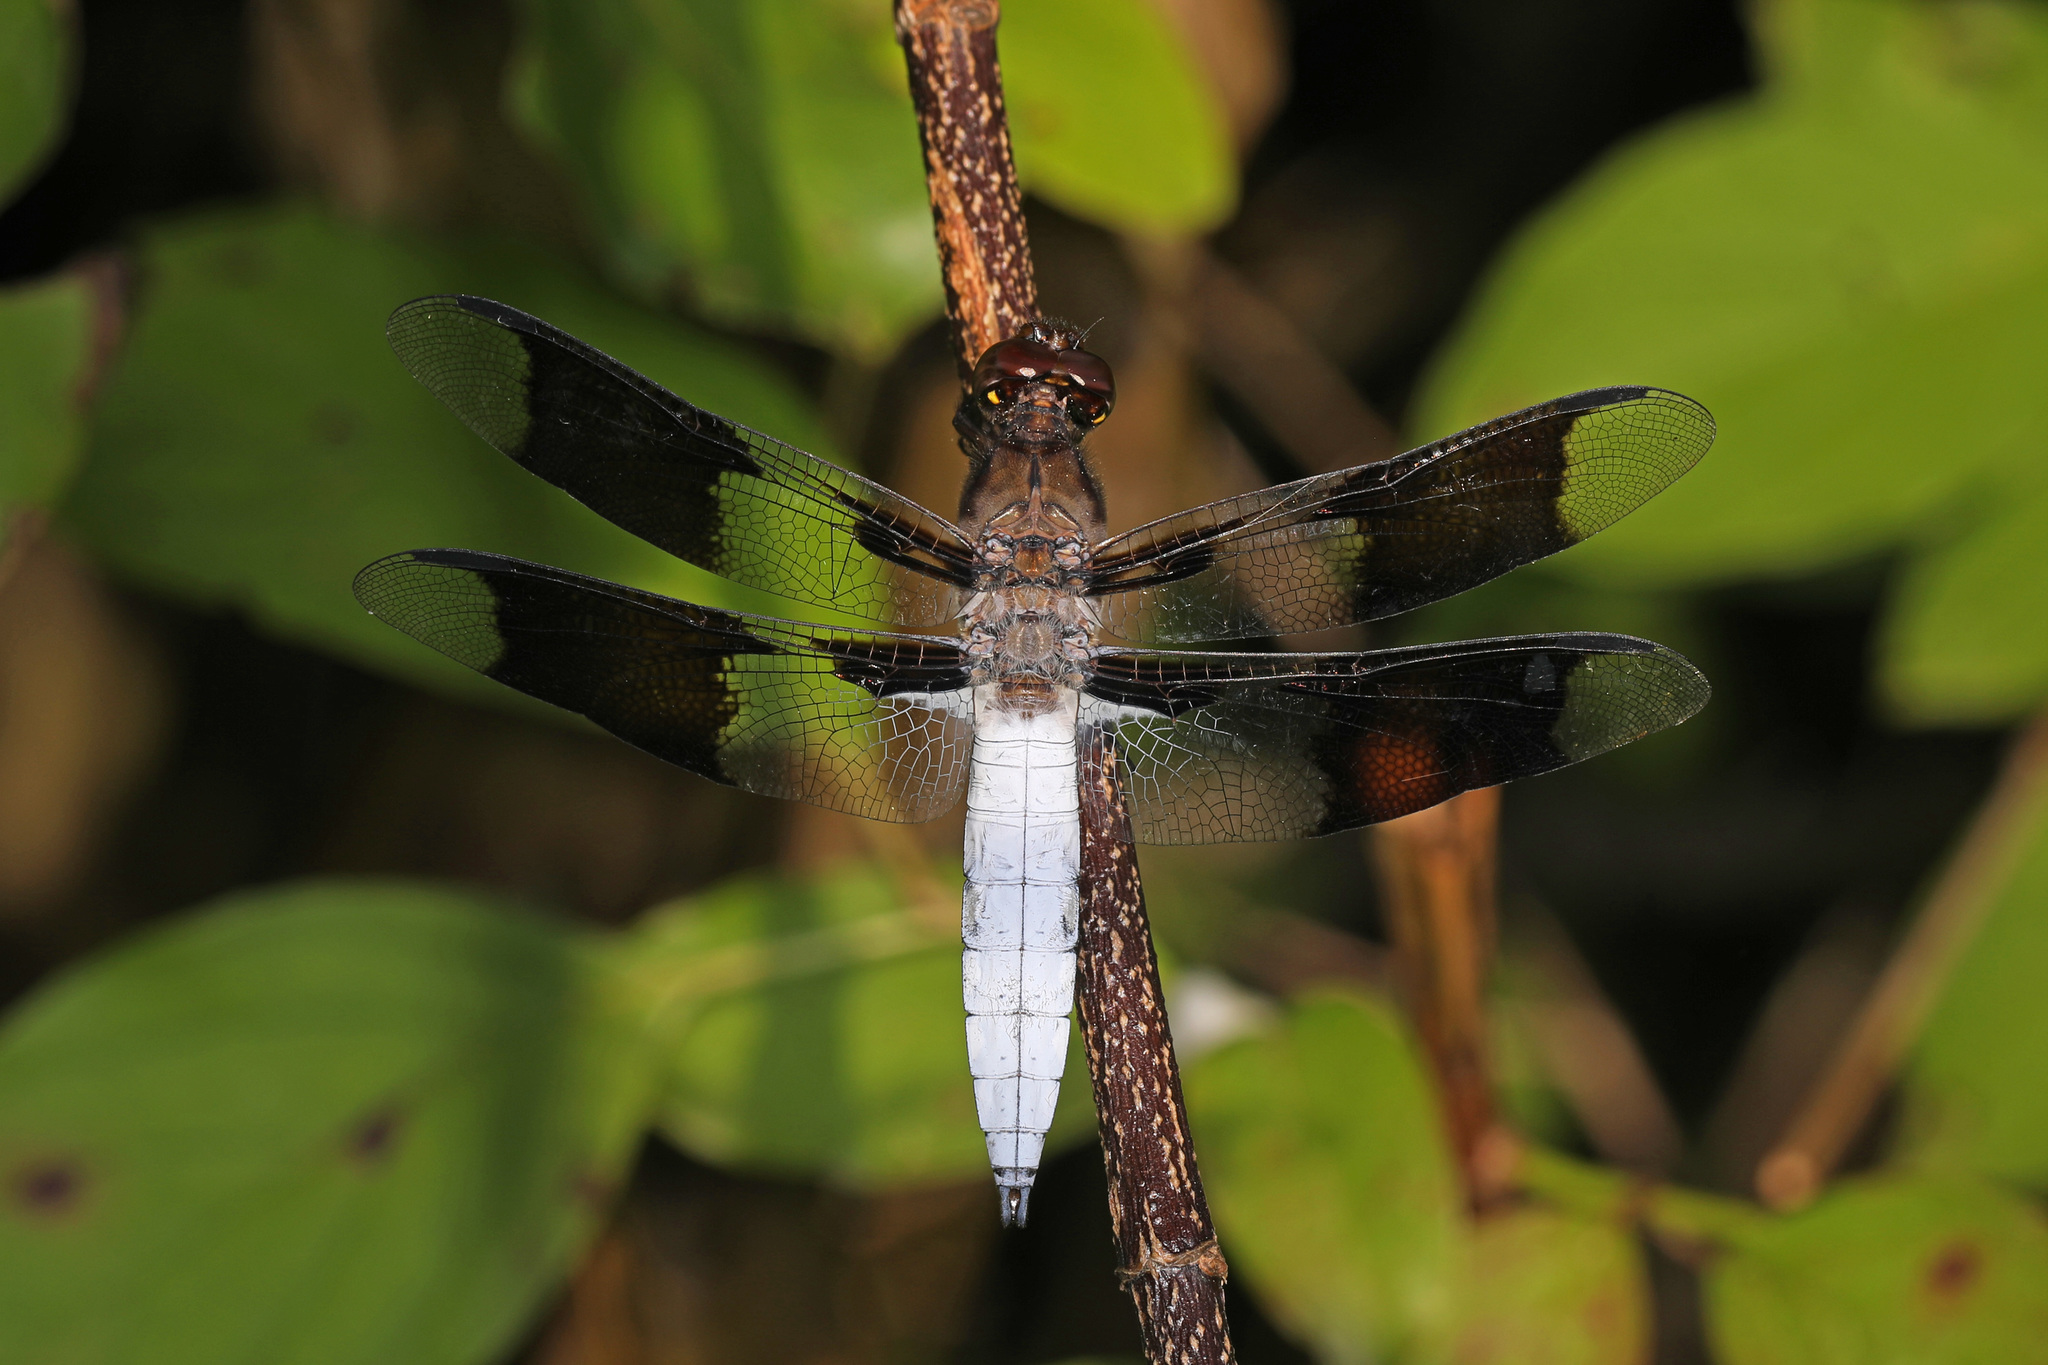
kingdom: Animalia
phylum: Arthropoda
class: Insecta
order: Odonata
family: Libellulidae
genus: Plathemis
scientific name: Plathemis lydia
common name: Common whitetail
